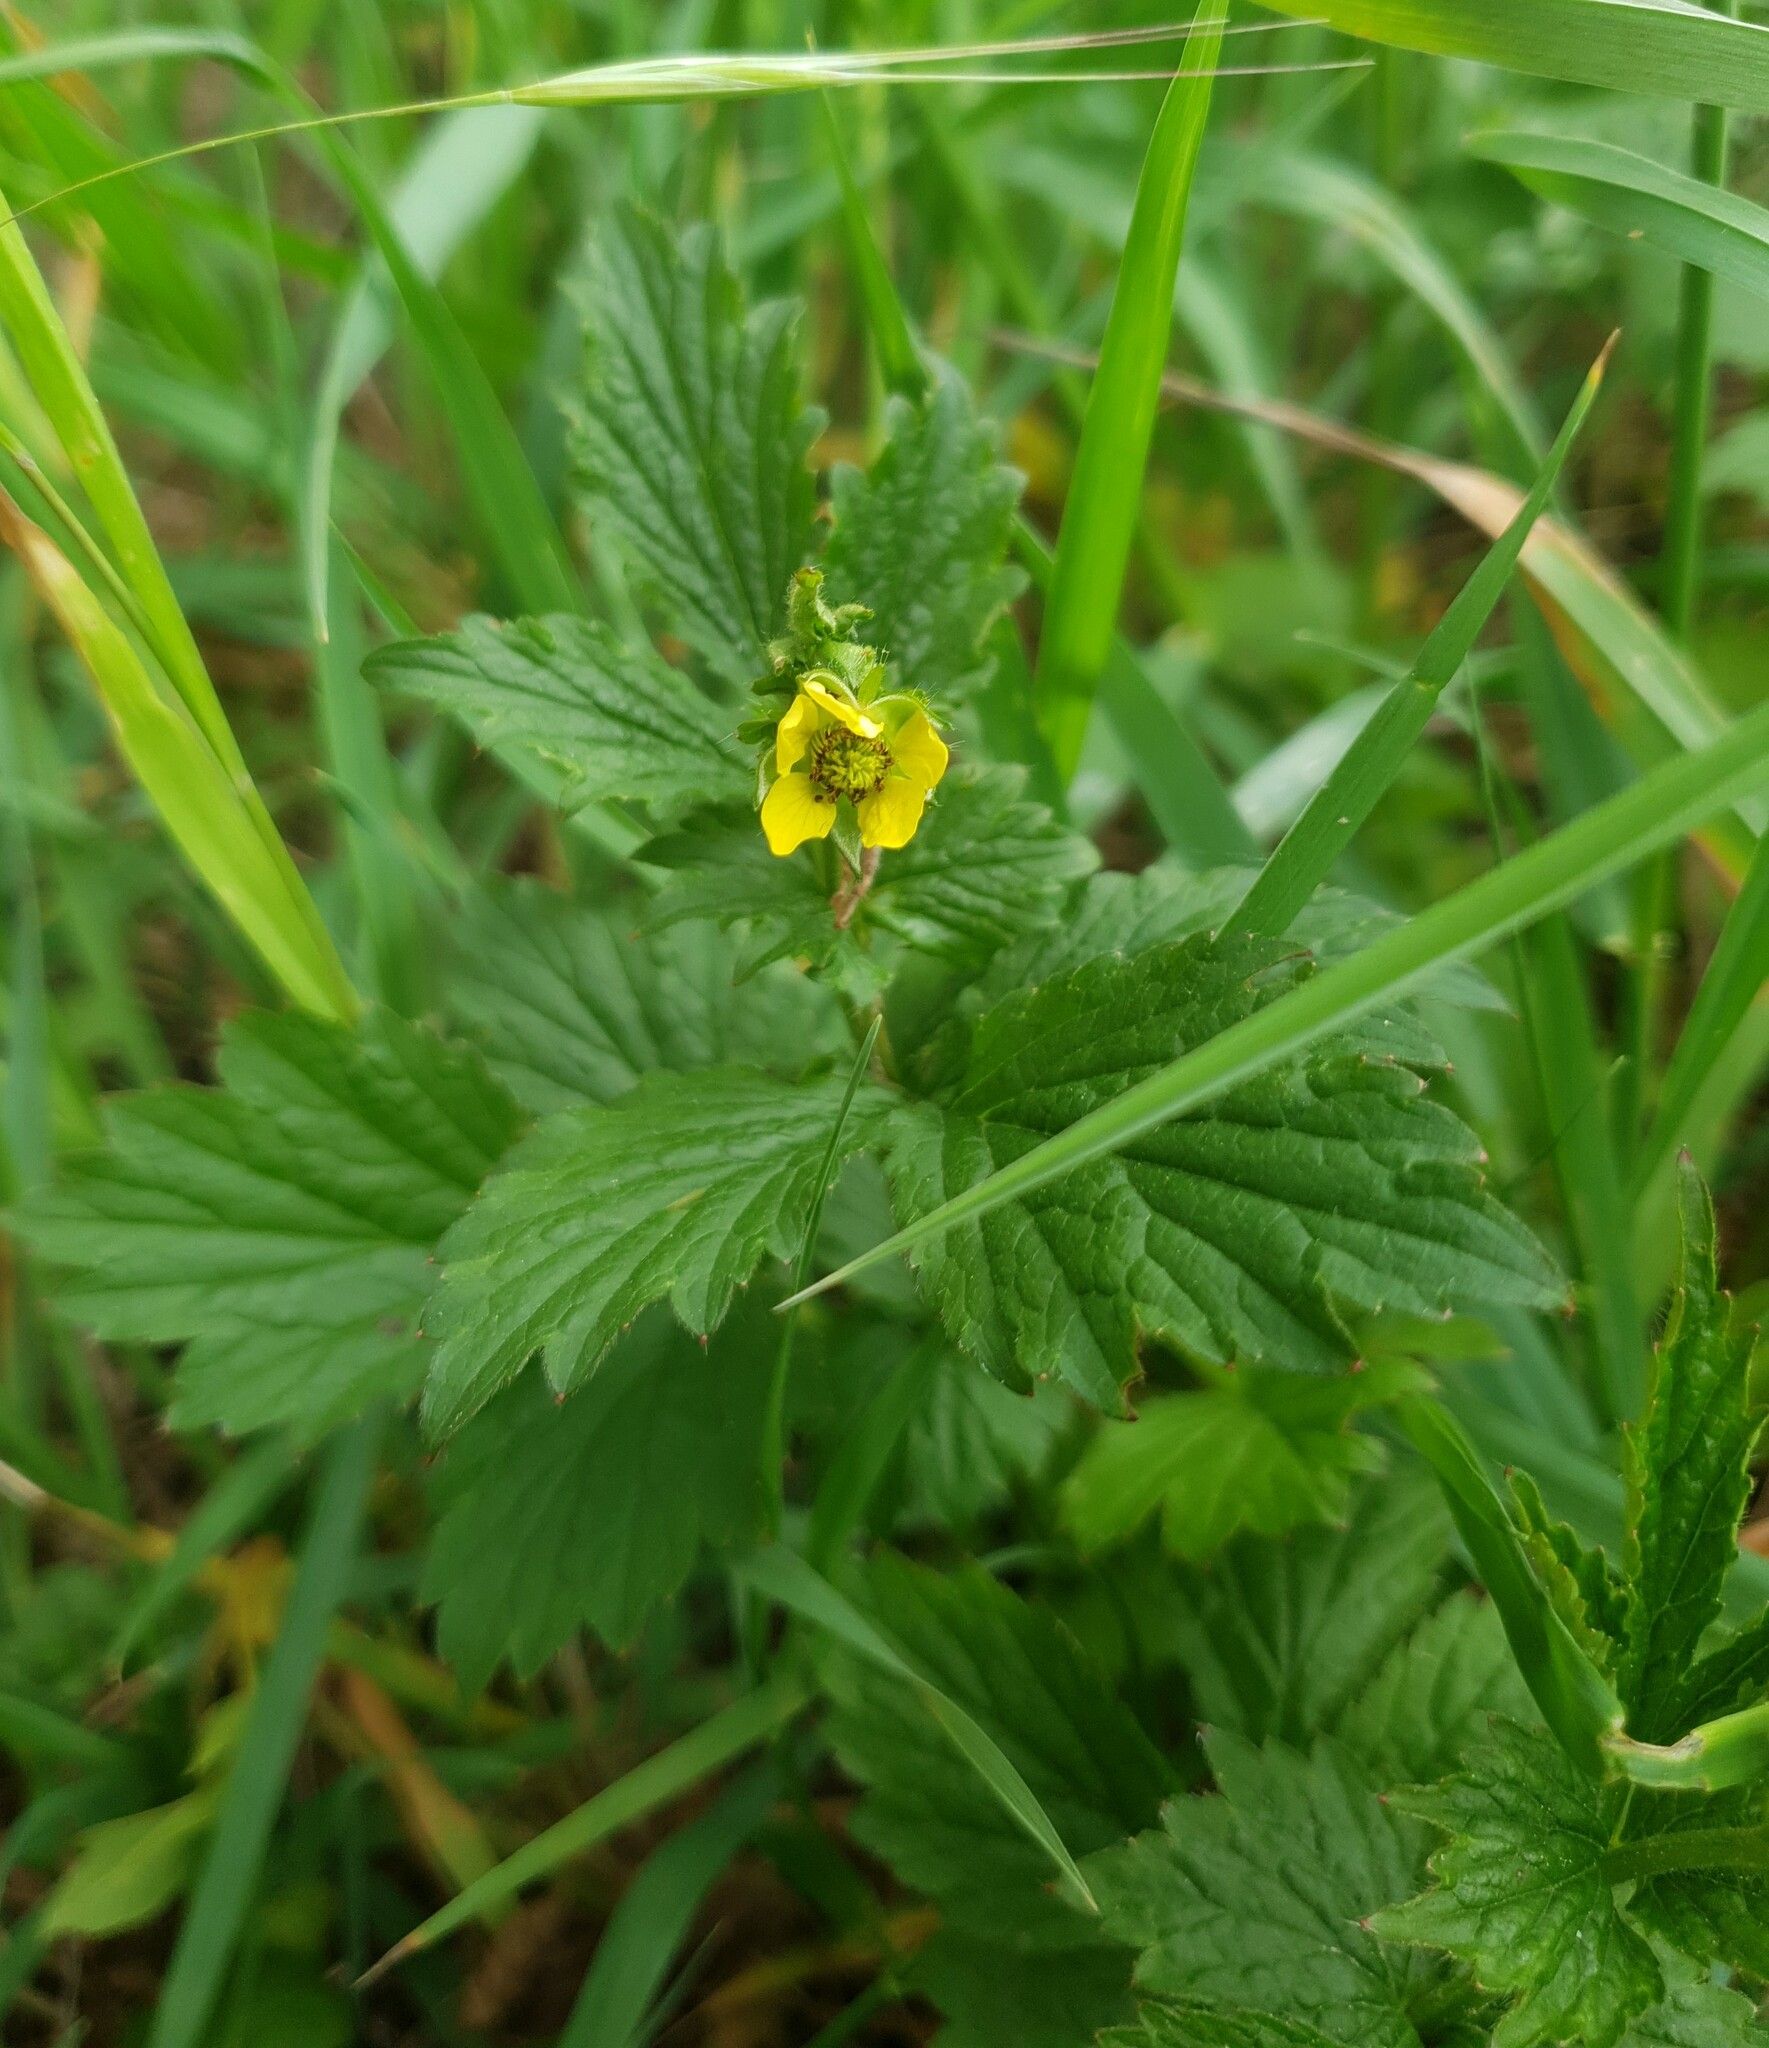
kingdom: Plantae
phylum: Tracheophyta
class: Magnoliopsida
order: Rosales
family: Rosaceae
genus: Geum
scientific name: Geum urbanum
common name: Wood avens
